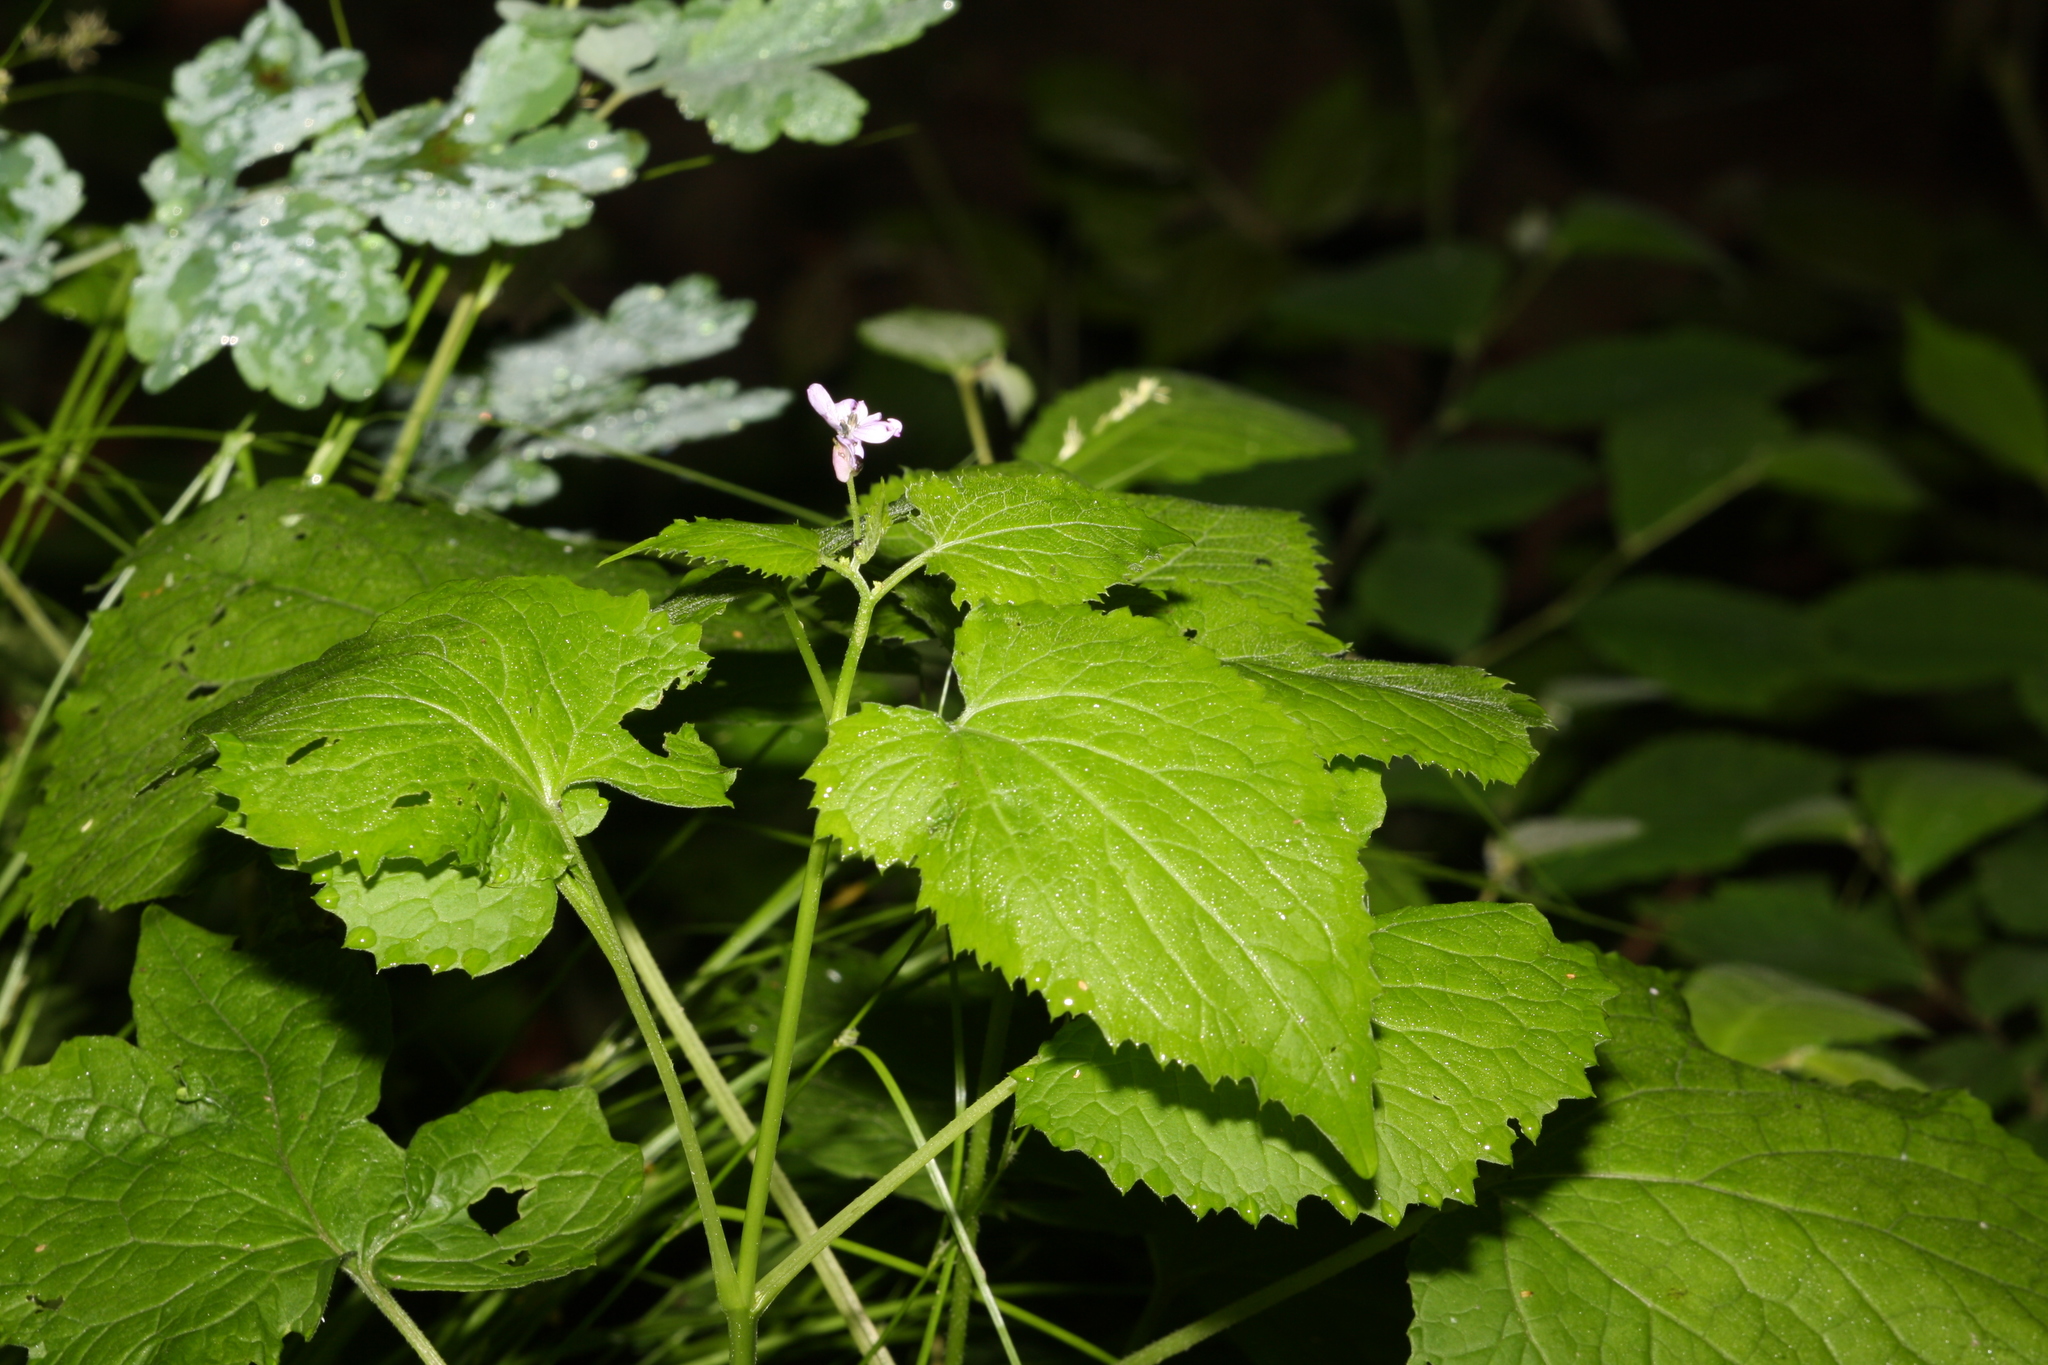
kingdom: Plantae
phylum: Tracheophyta
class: Magnoliopsida
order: Brassicales
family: Brassicaceae
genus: Lunaria
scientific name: Lunaria rediviva
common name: Perennial honesty
